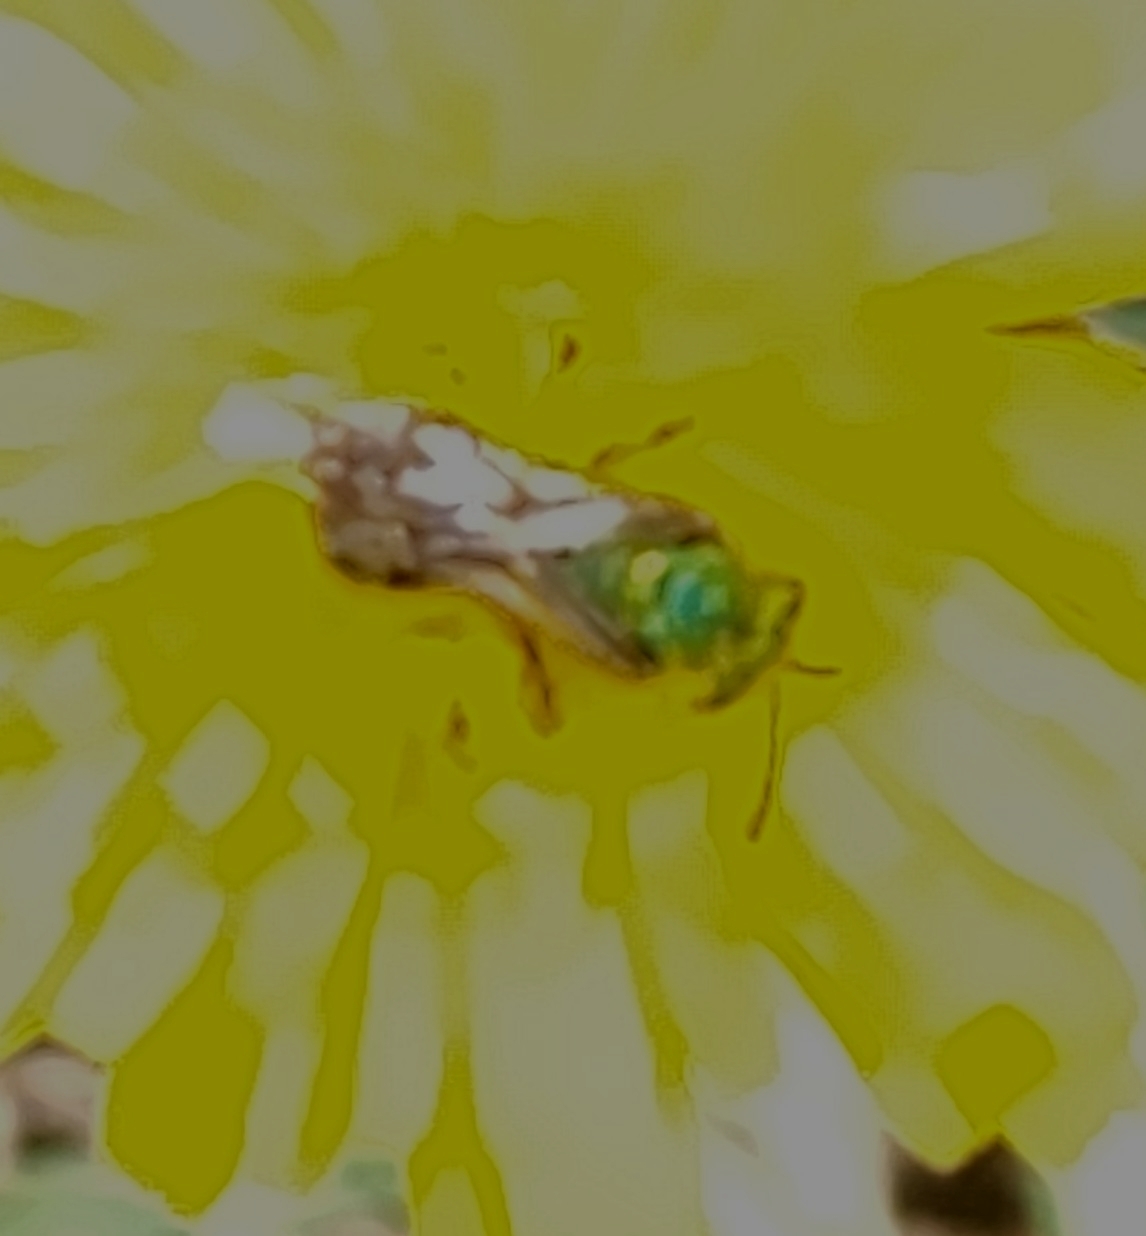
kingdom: Animalia
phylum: Arthropoda
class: Insecta
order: Hymenoptera
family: Halictidae
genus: Agapostemon
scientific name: Agapostemon virescens
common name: Bicolored striped sweat bee
